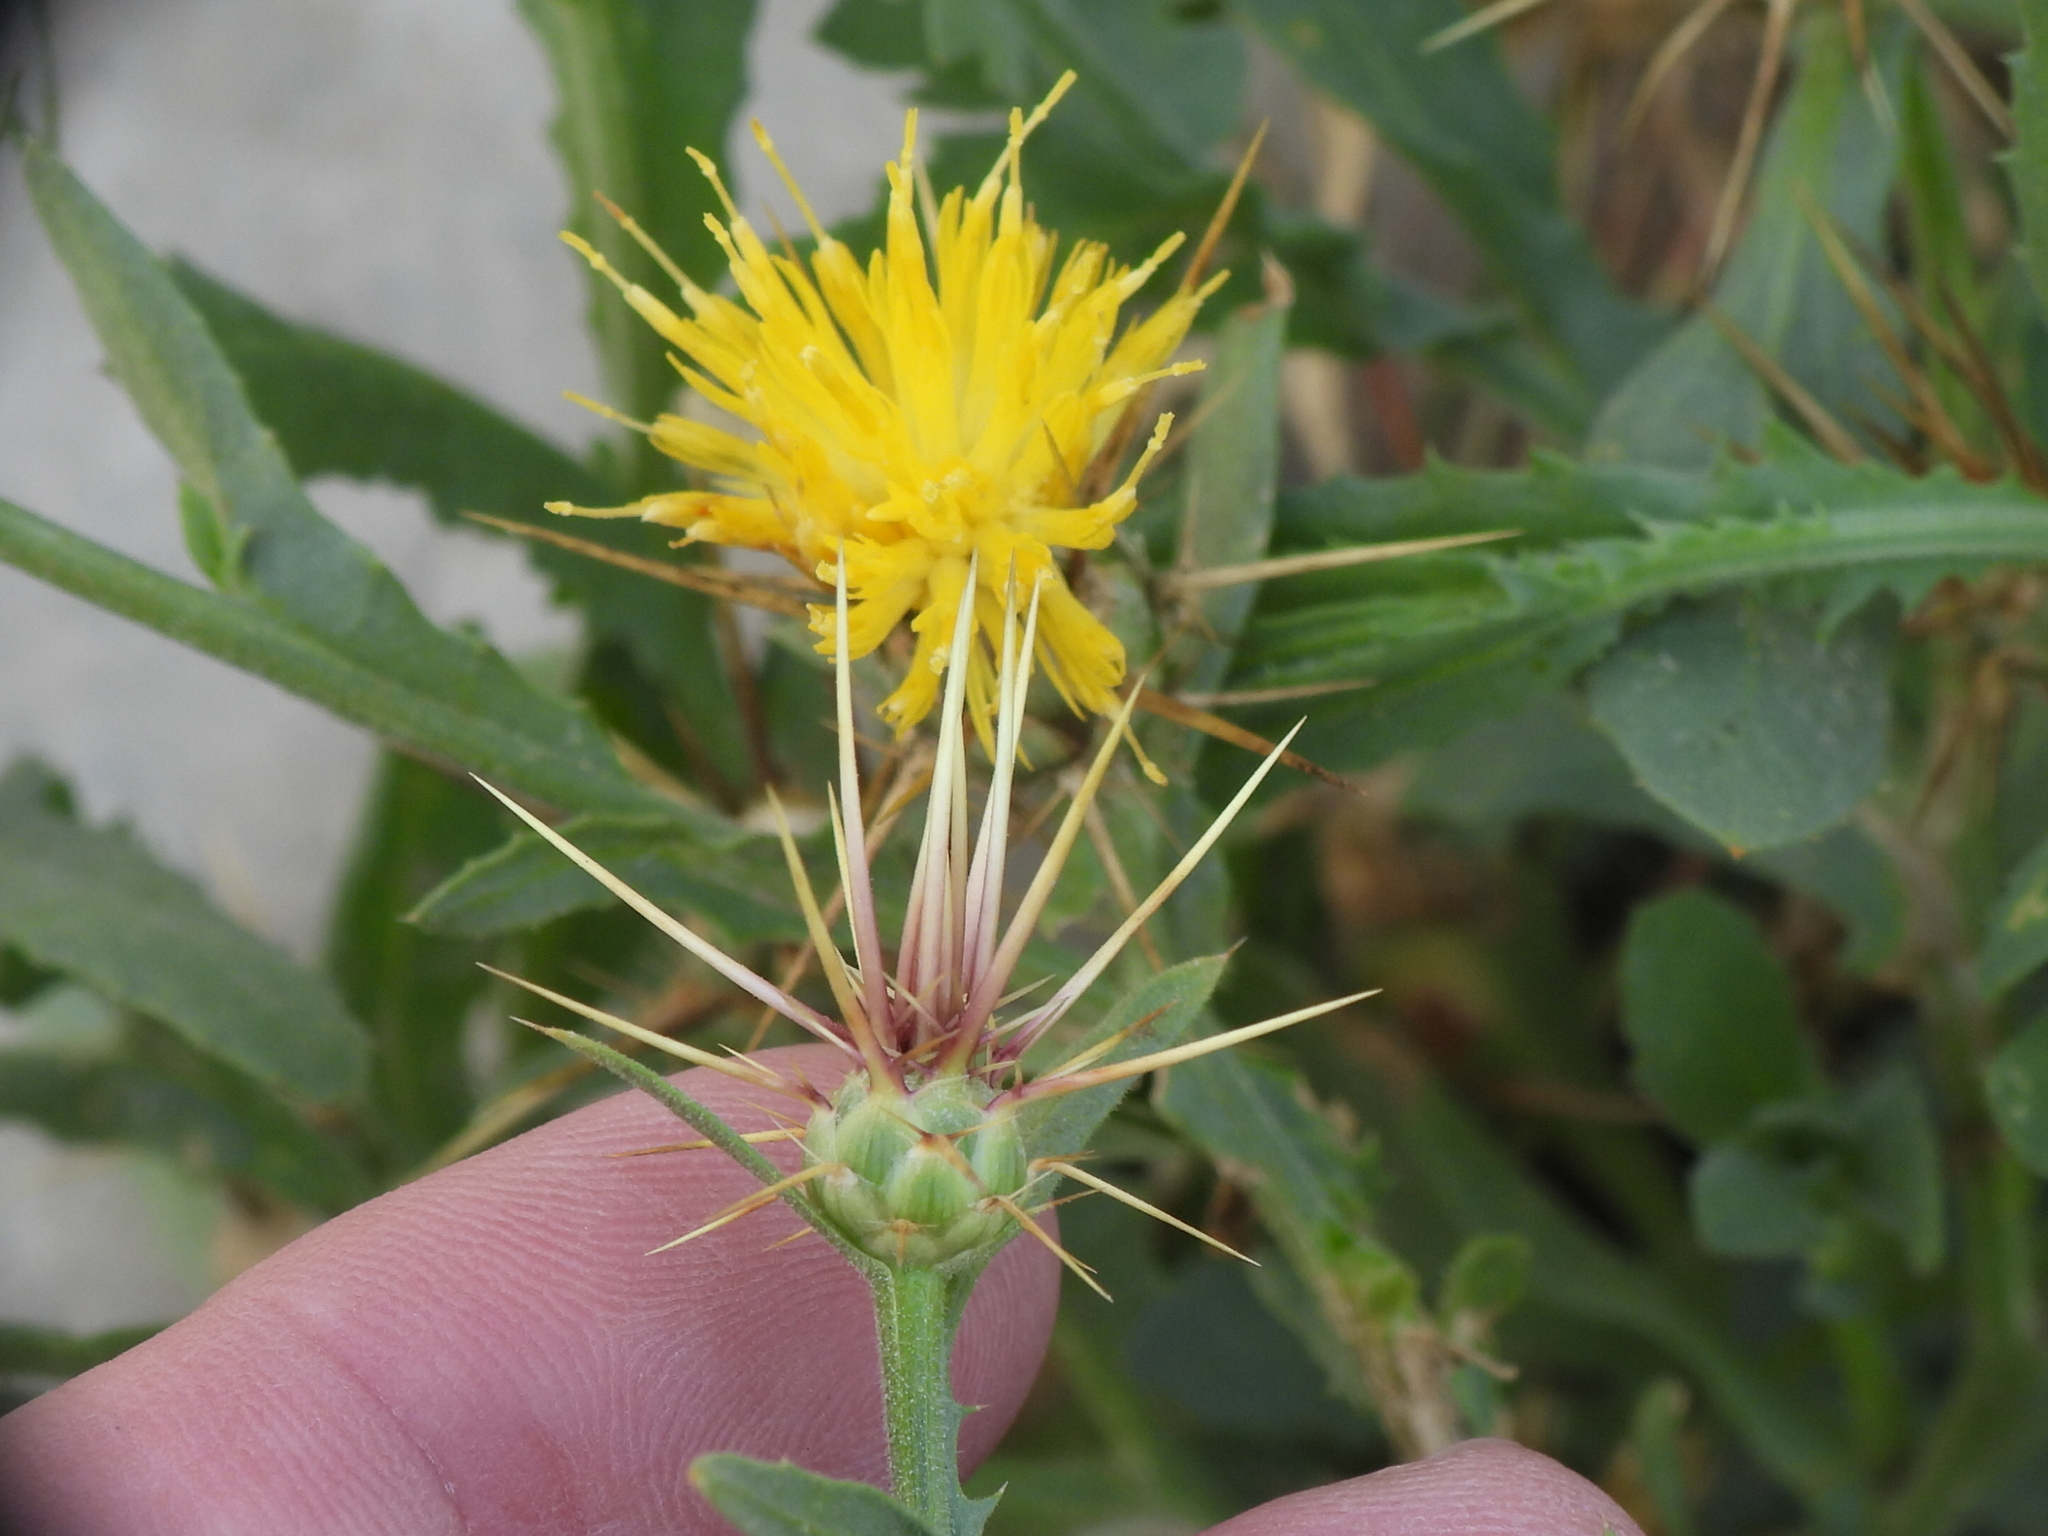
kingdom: Plantae
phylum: Tracheophyta
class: Magnoliopsida
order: Asterales
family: Asteraceae
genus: Centaurea
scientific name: Centaurea pseudosinaica
